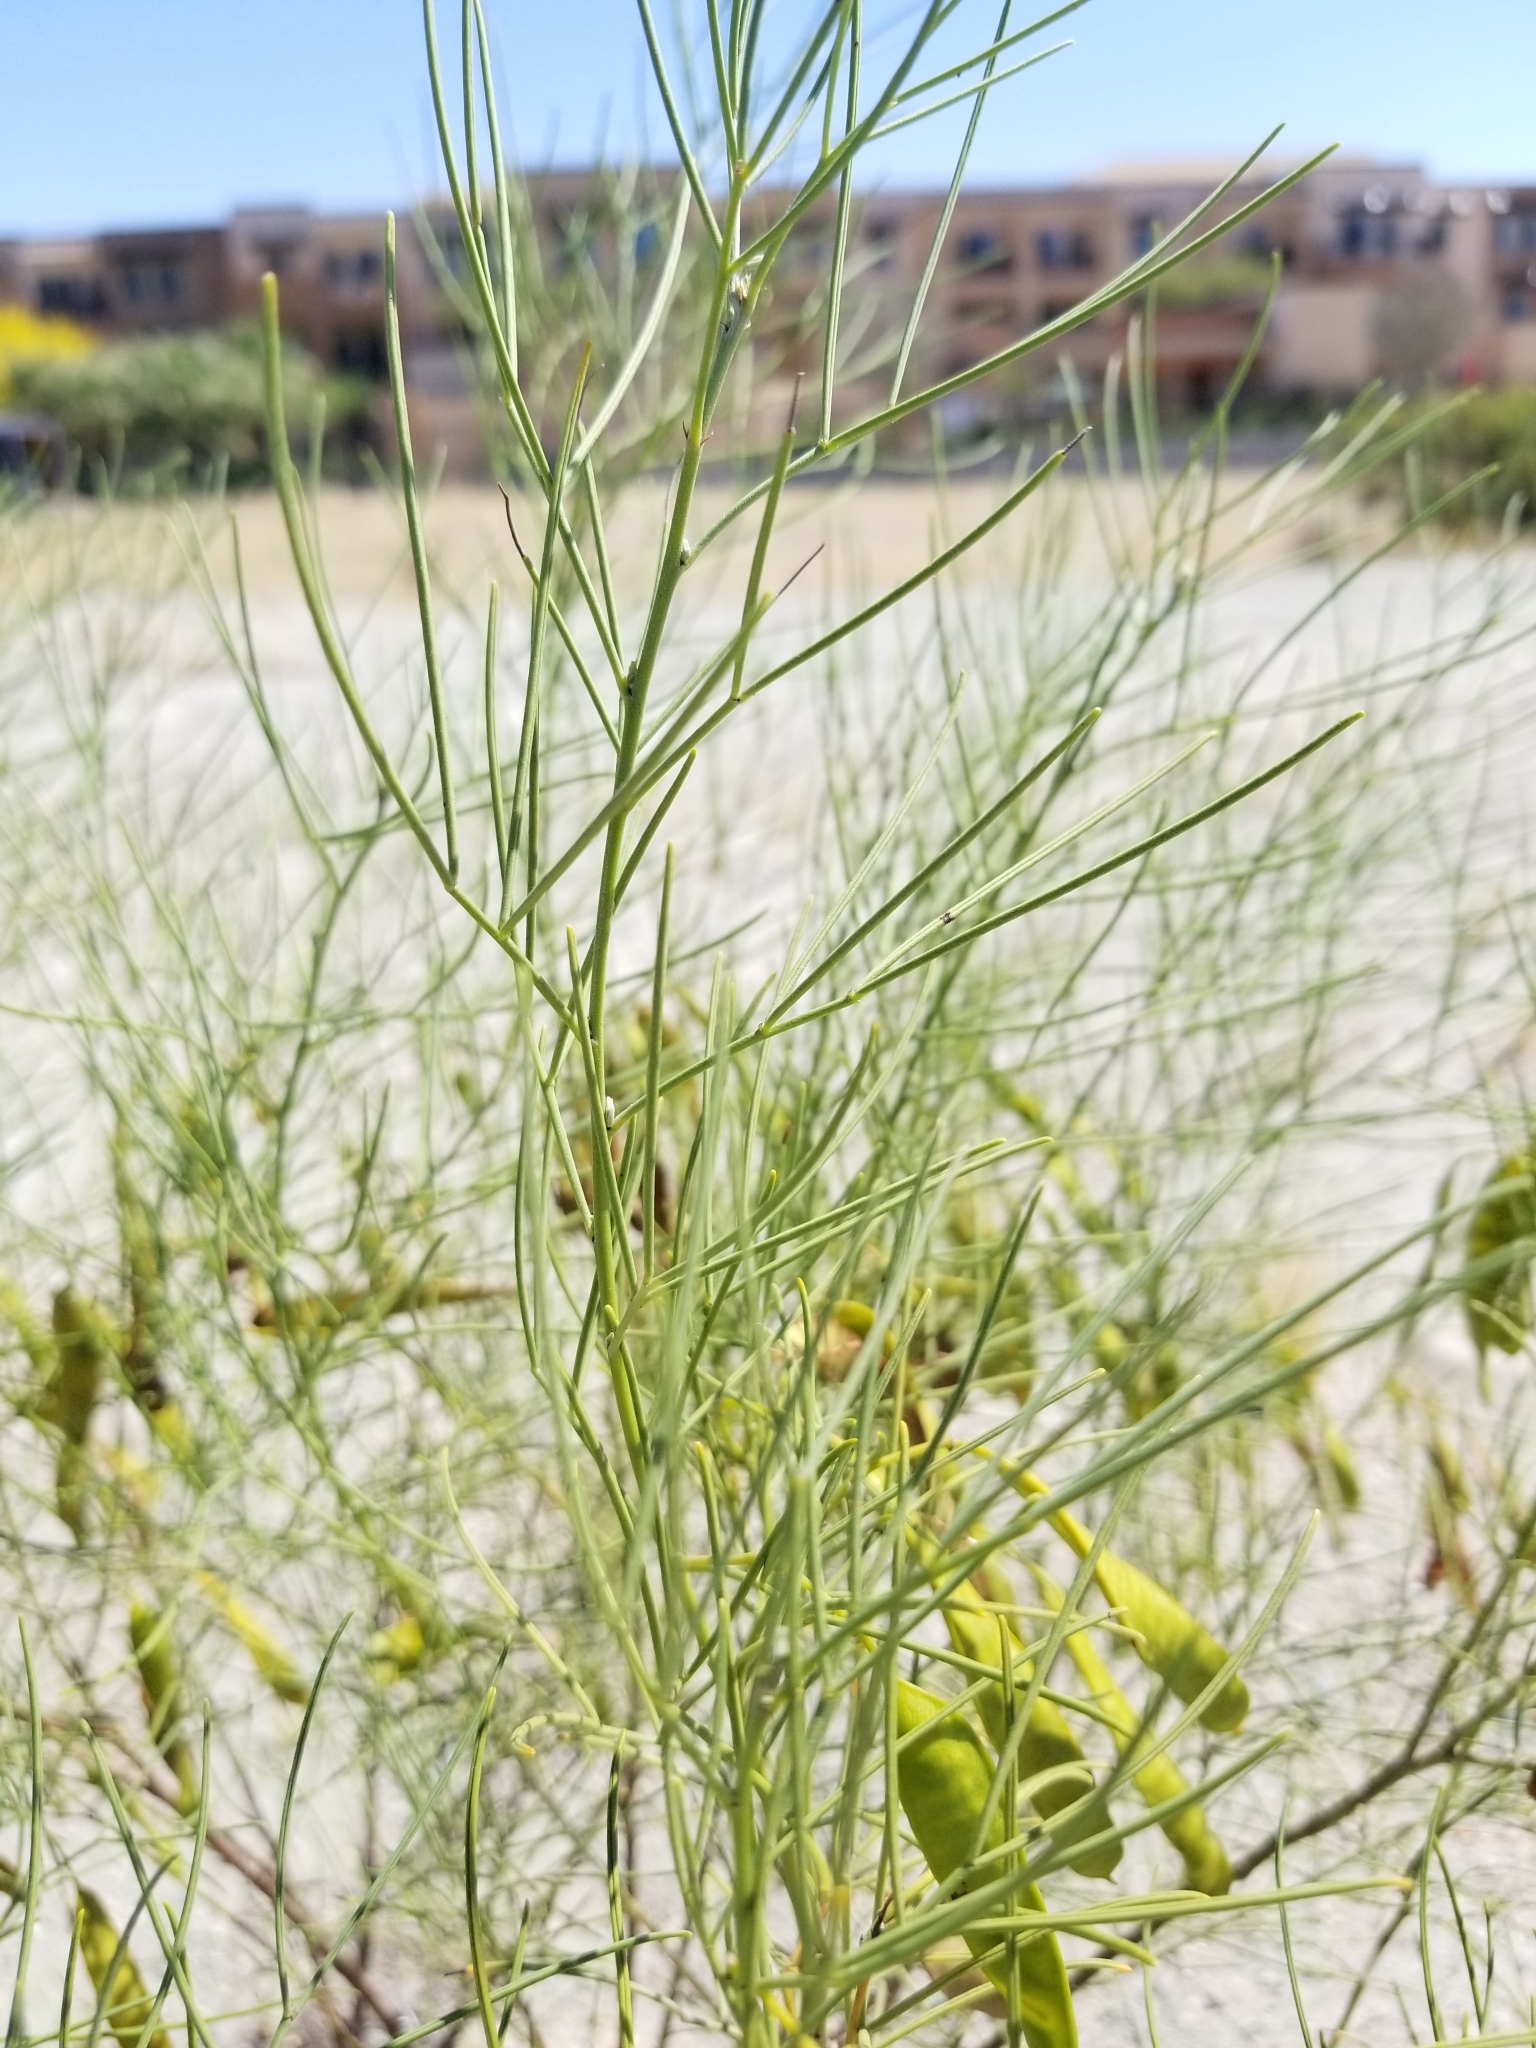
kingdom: Plantae
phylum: Tracheophyta
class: Magnoliopsida
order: Fabales
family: Fabaceae
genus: Senna
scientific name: Senna artemisioides
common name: Burnt-leaved acacia
